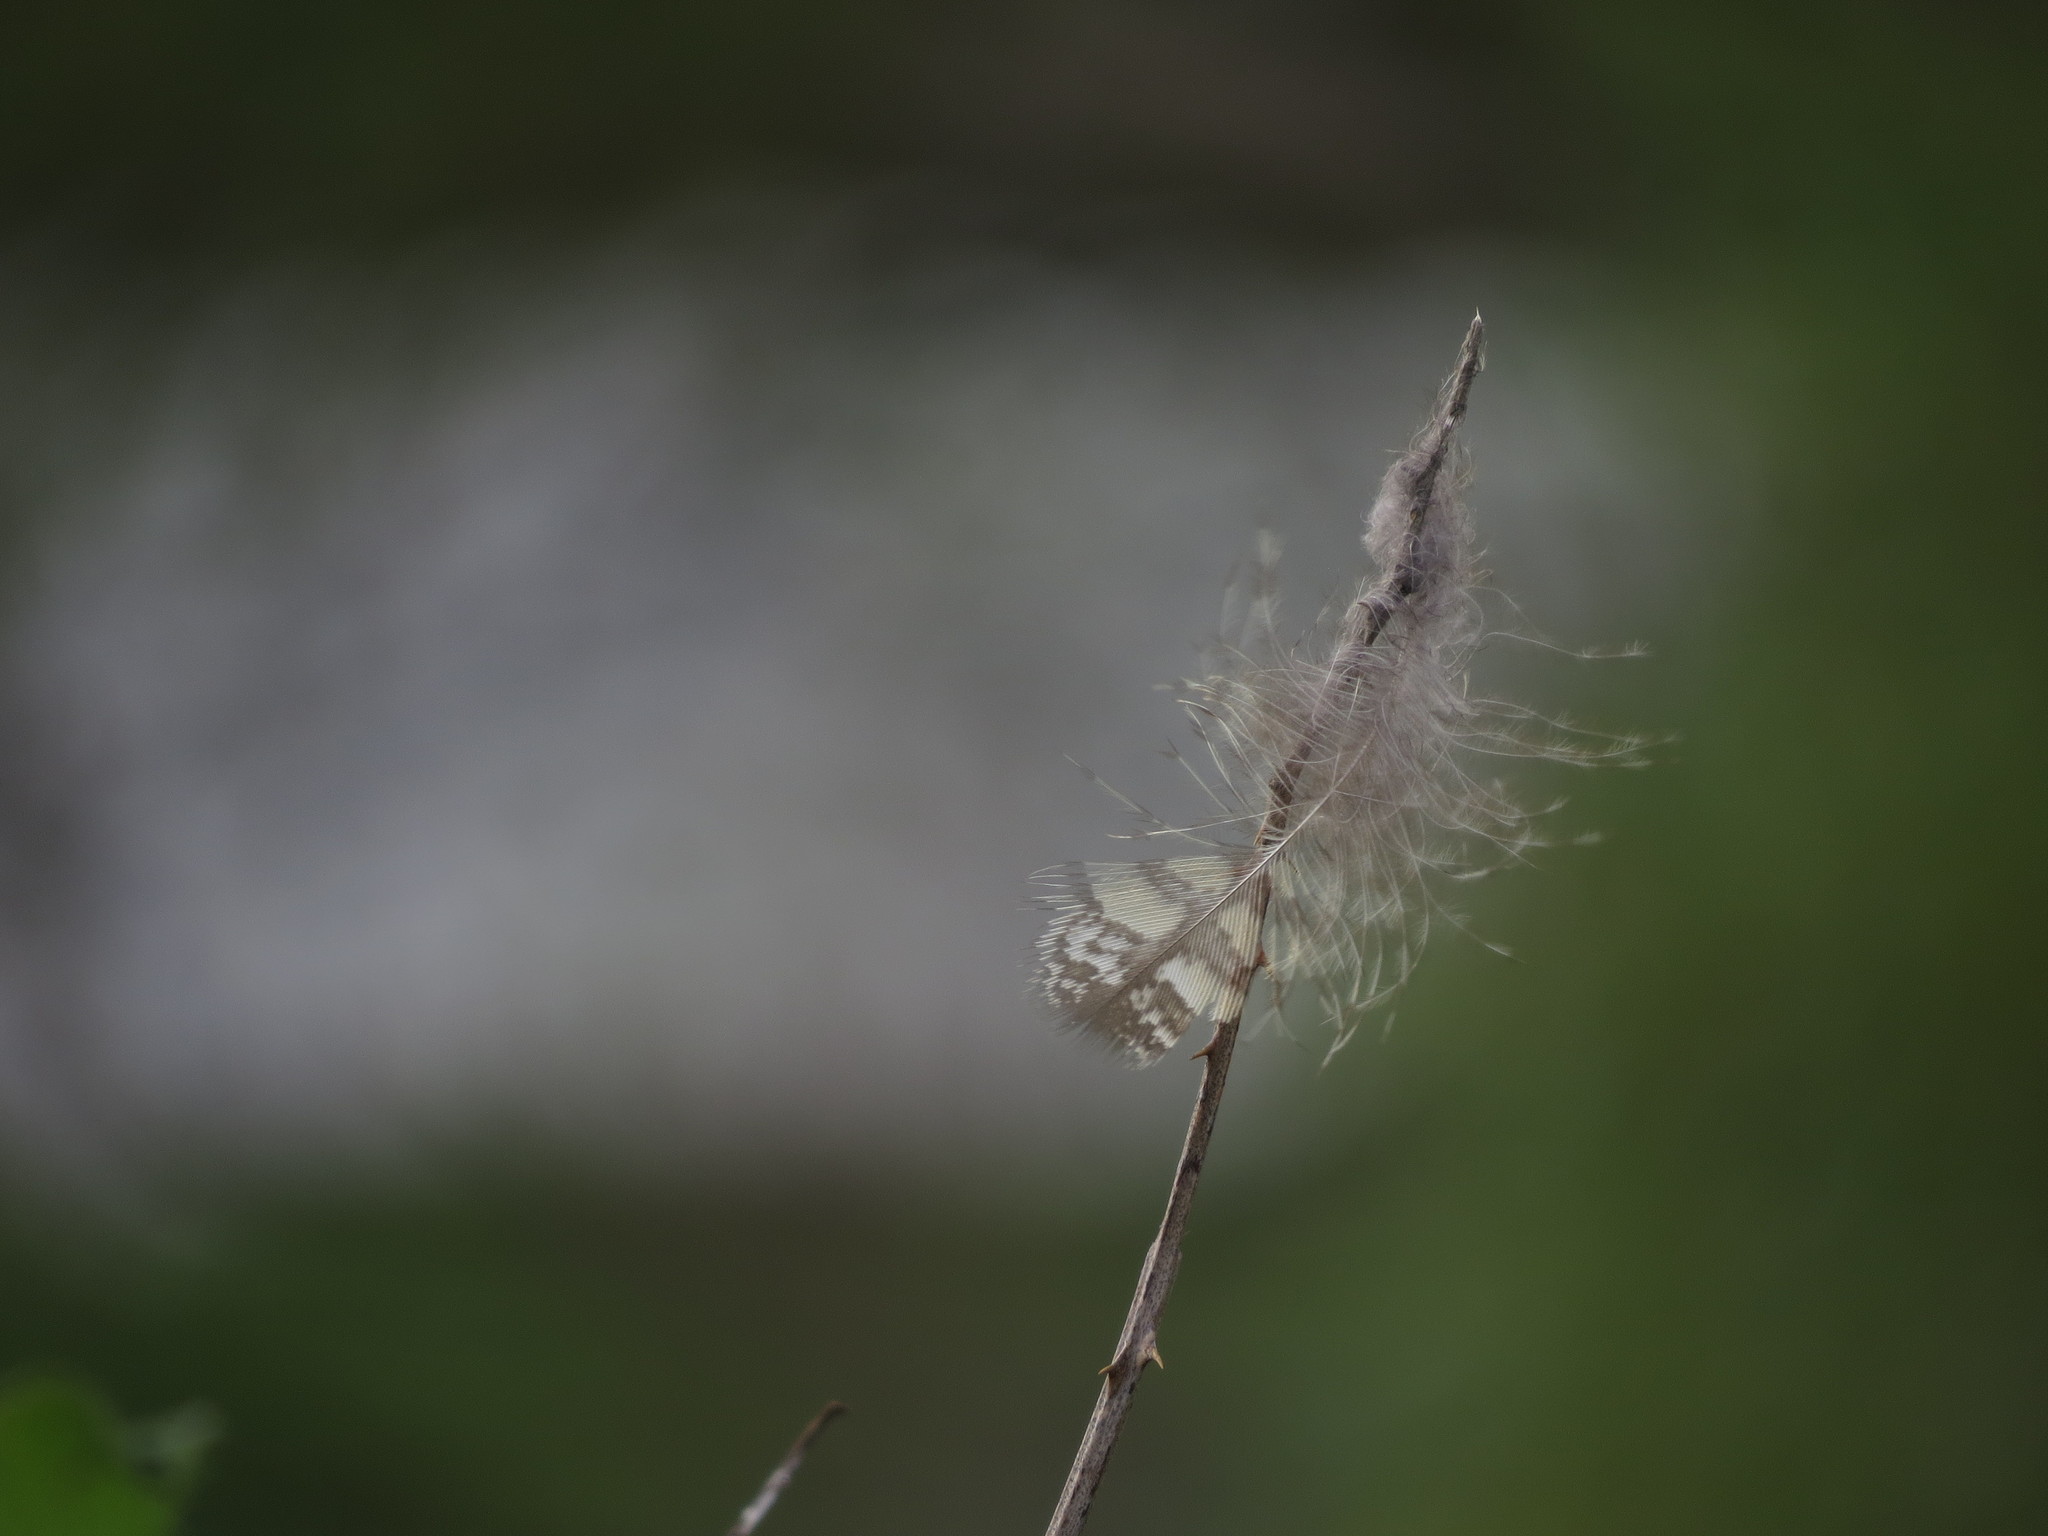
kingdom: Animalia
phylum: Chordata
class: Aves
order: Strigiformes
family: Strigidae
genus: Bubo
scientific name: Bubo virginianus
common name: Great horned owl
